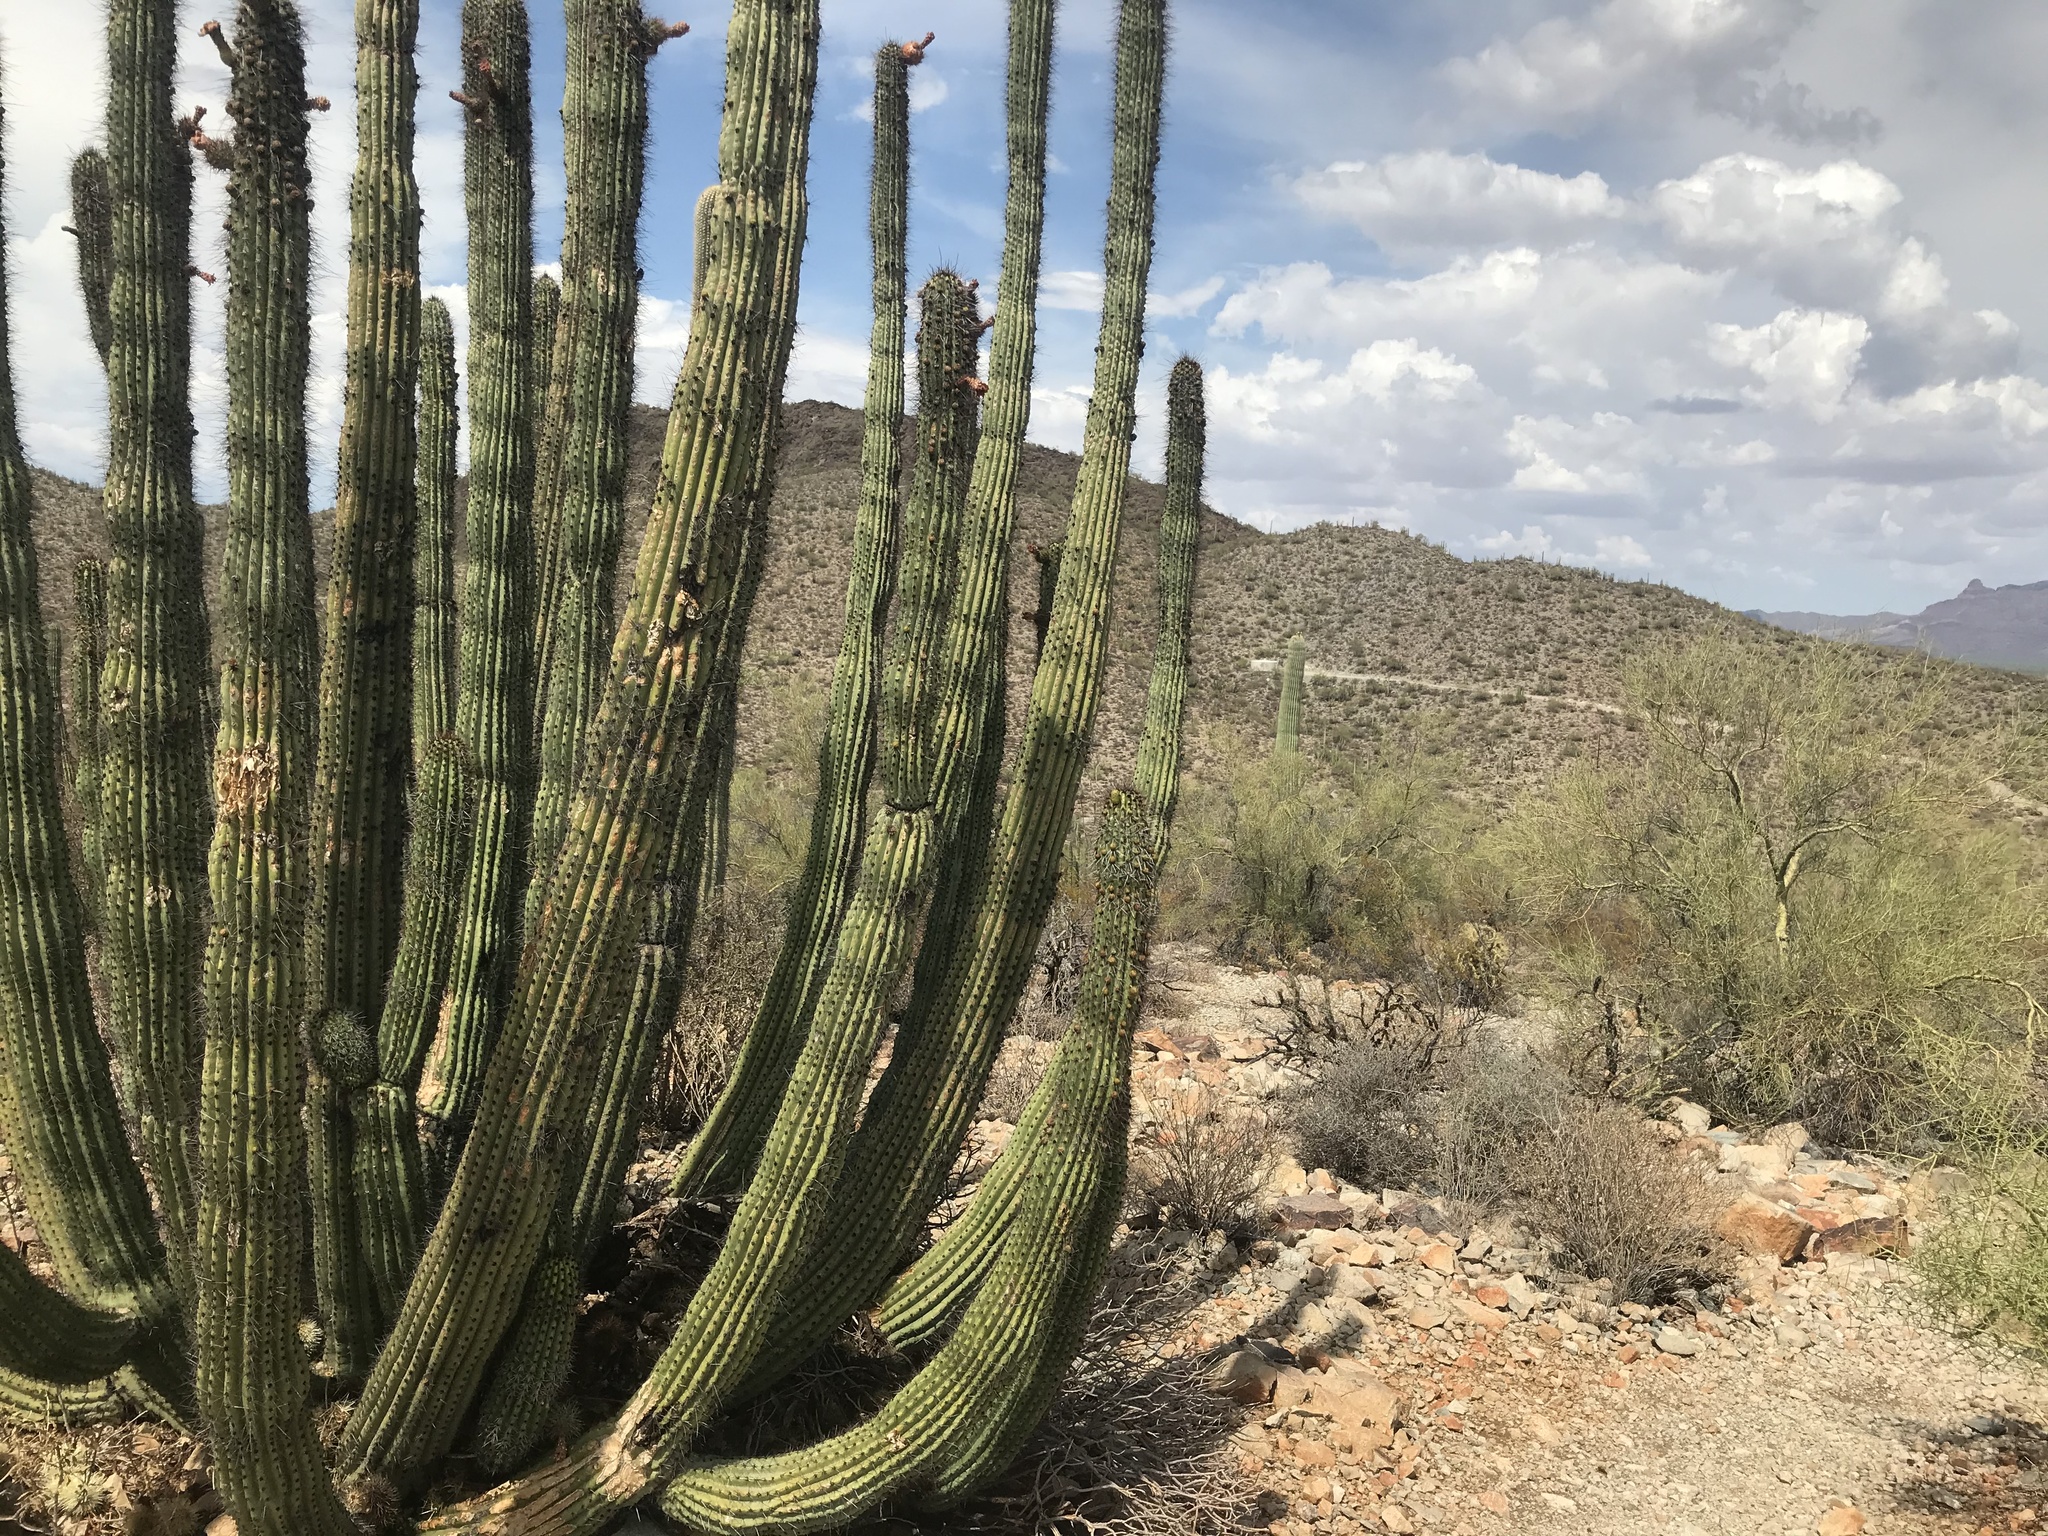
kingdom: Plantae
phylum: Tracheophyta
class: Magnoliopsida
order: Caryophyllales
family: Cactaceae
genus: Stenocereus
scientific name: Stenocereus thurberi
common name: Organ pipe cactus
